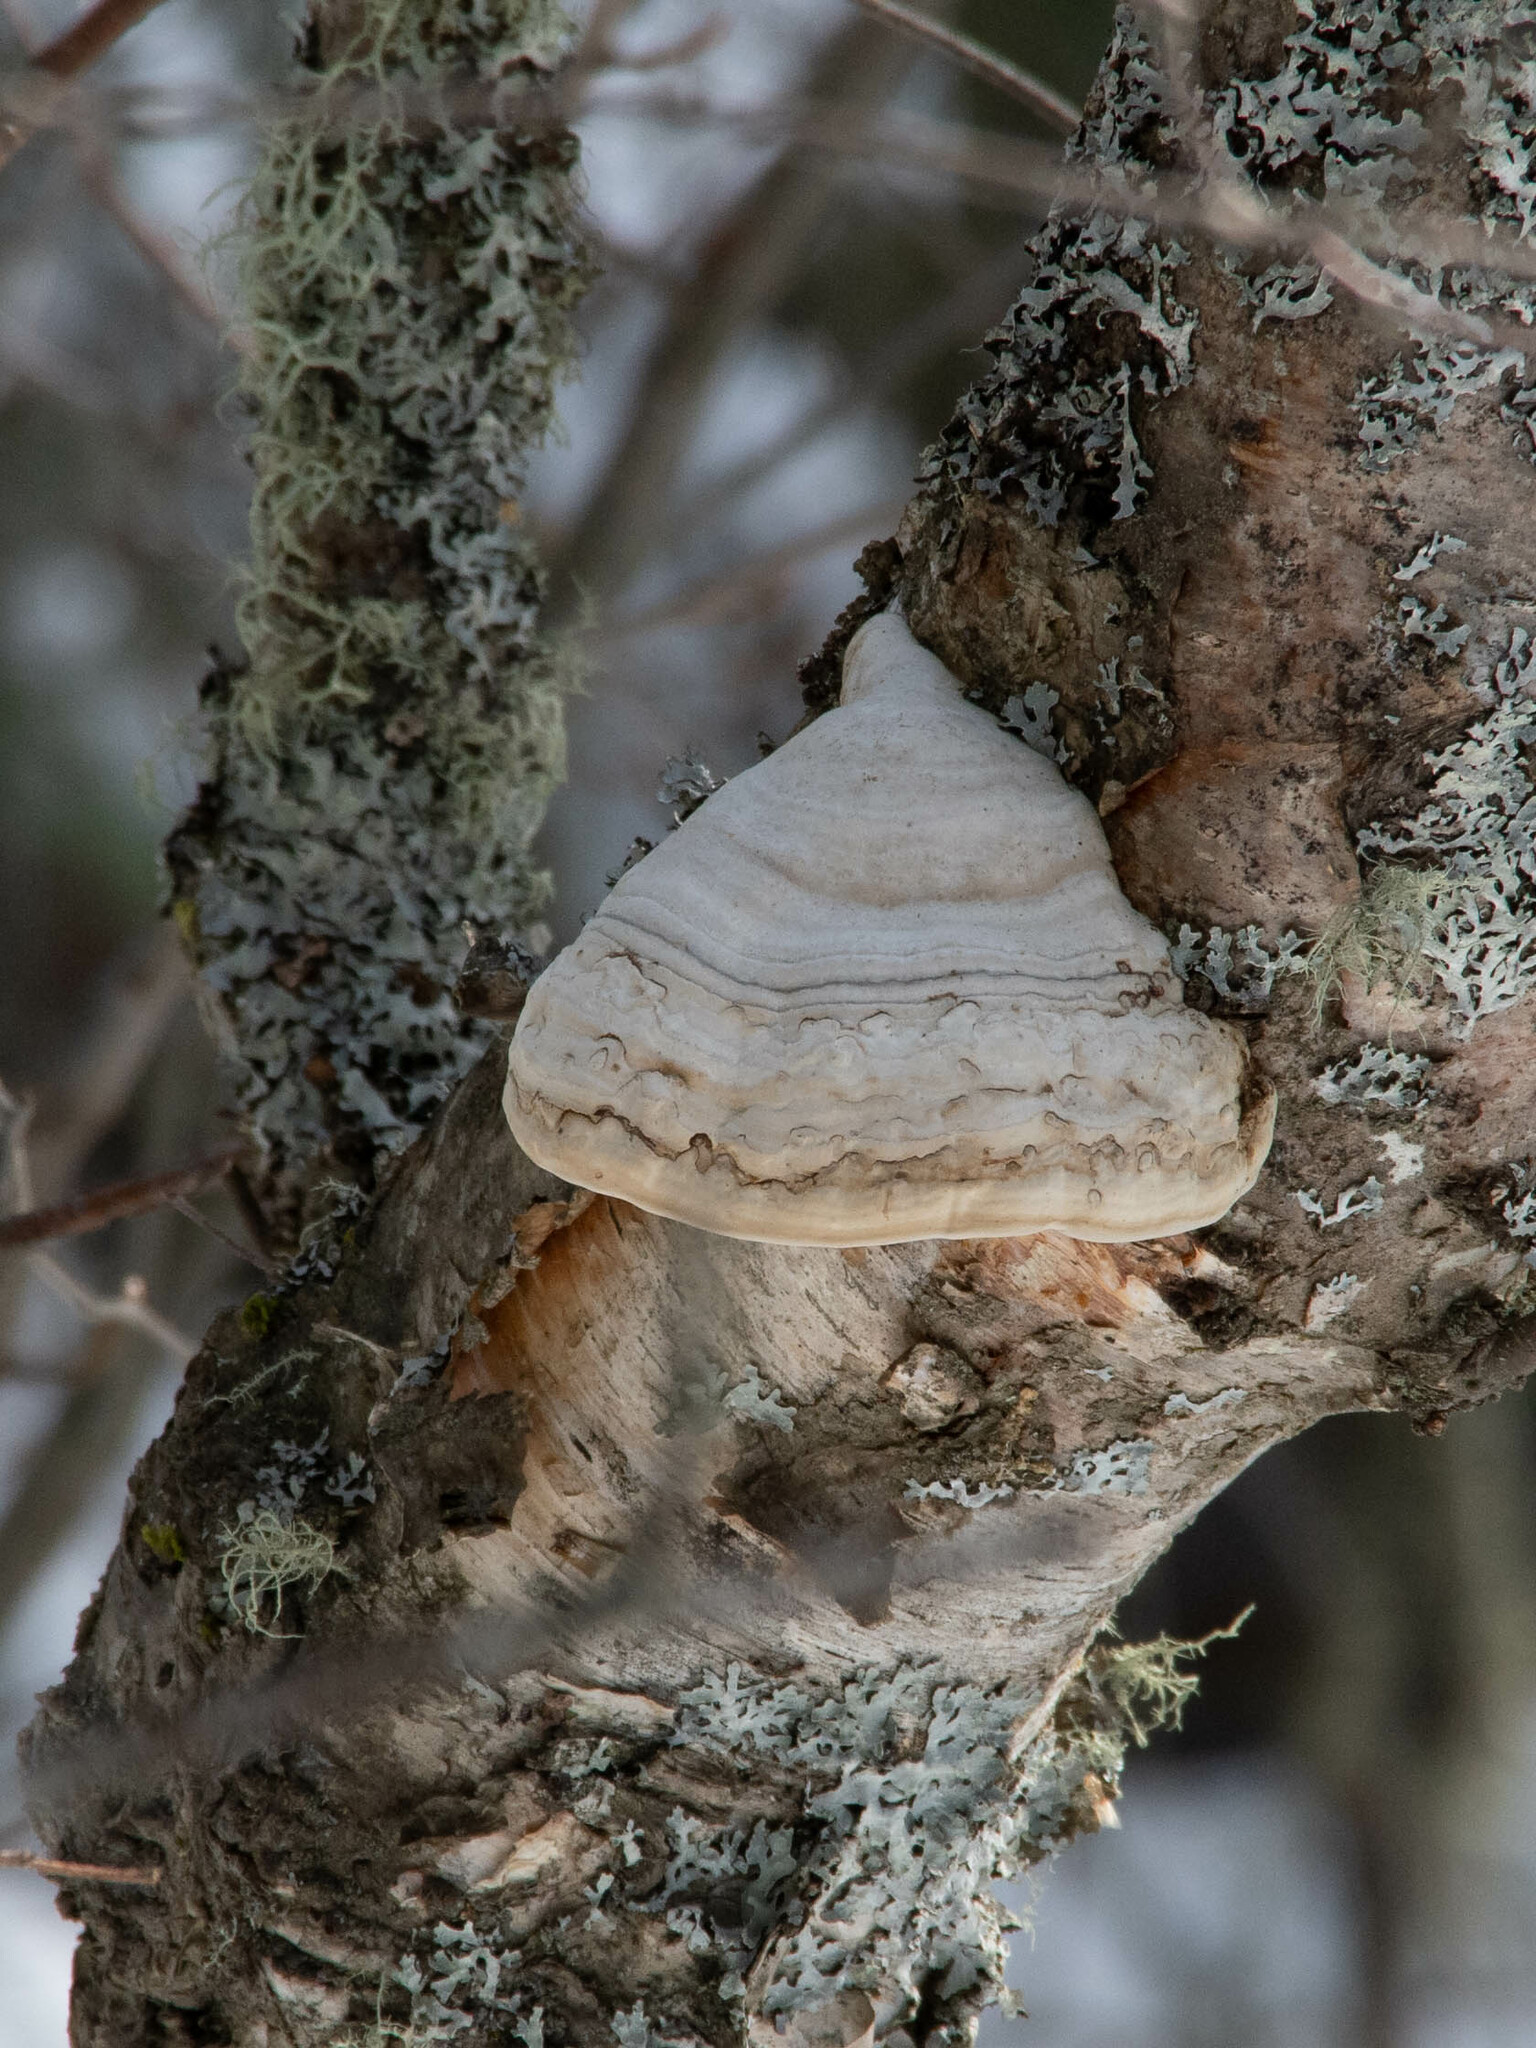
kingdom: Fungi
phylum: Basidiomycota
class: Agaricomycetes
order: Polyporales
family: Polyporaceae
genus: Fomes
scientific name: Fomes fomentarius
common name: Hoof fungus
